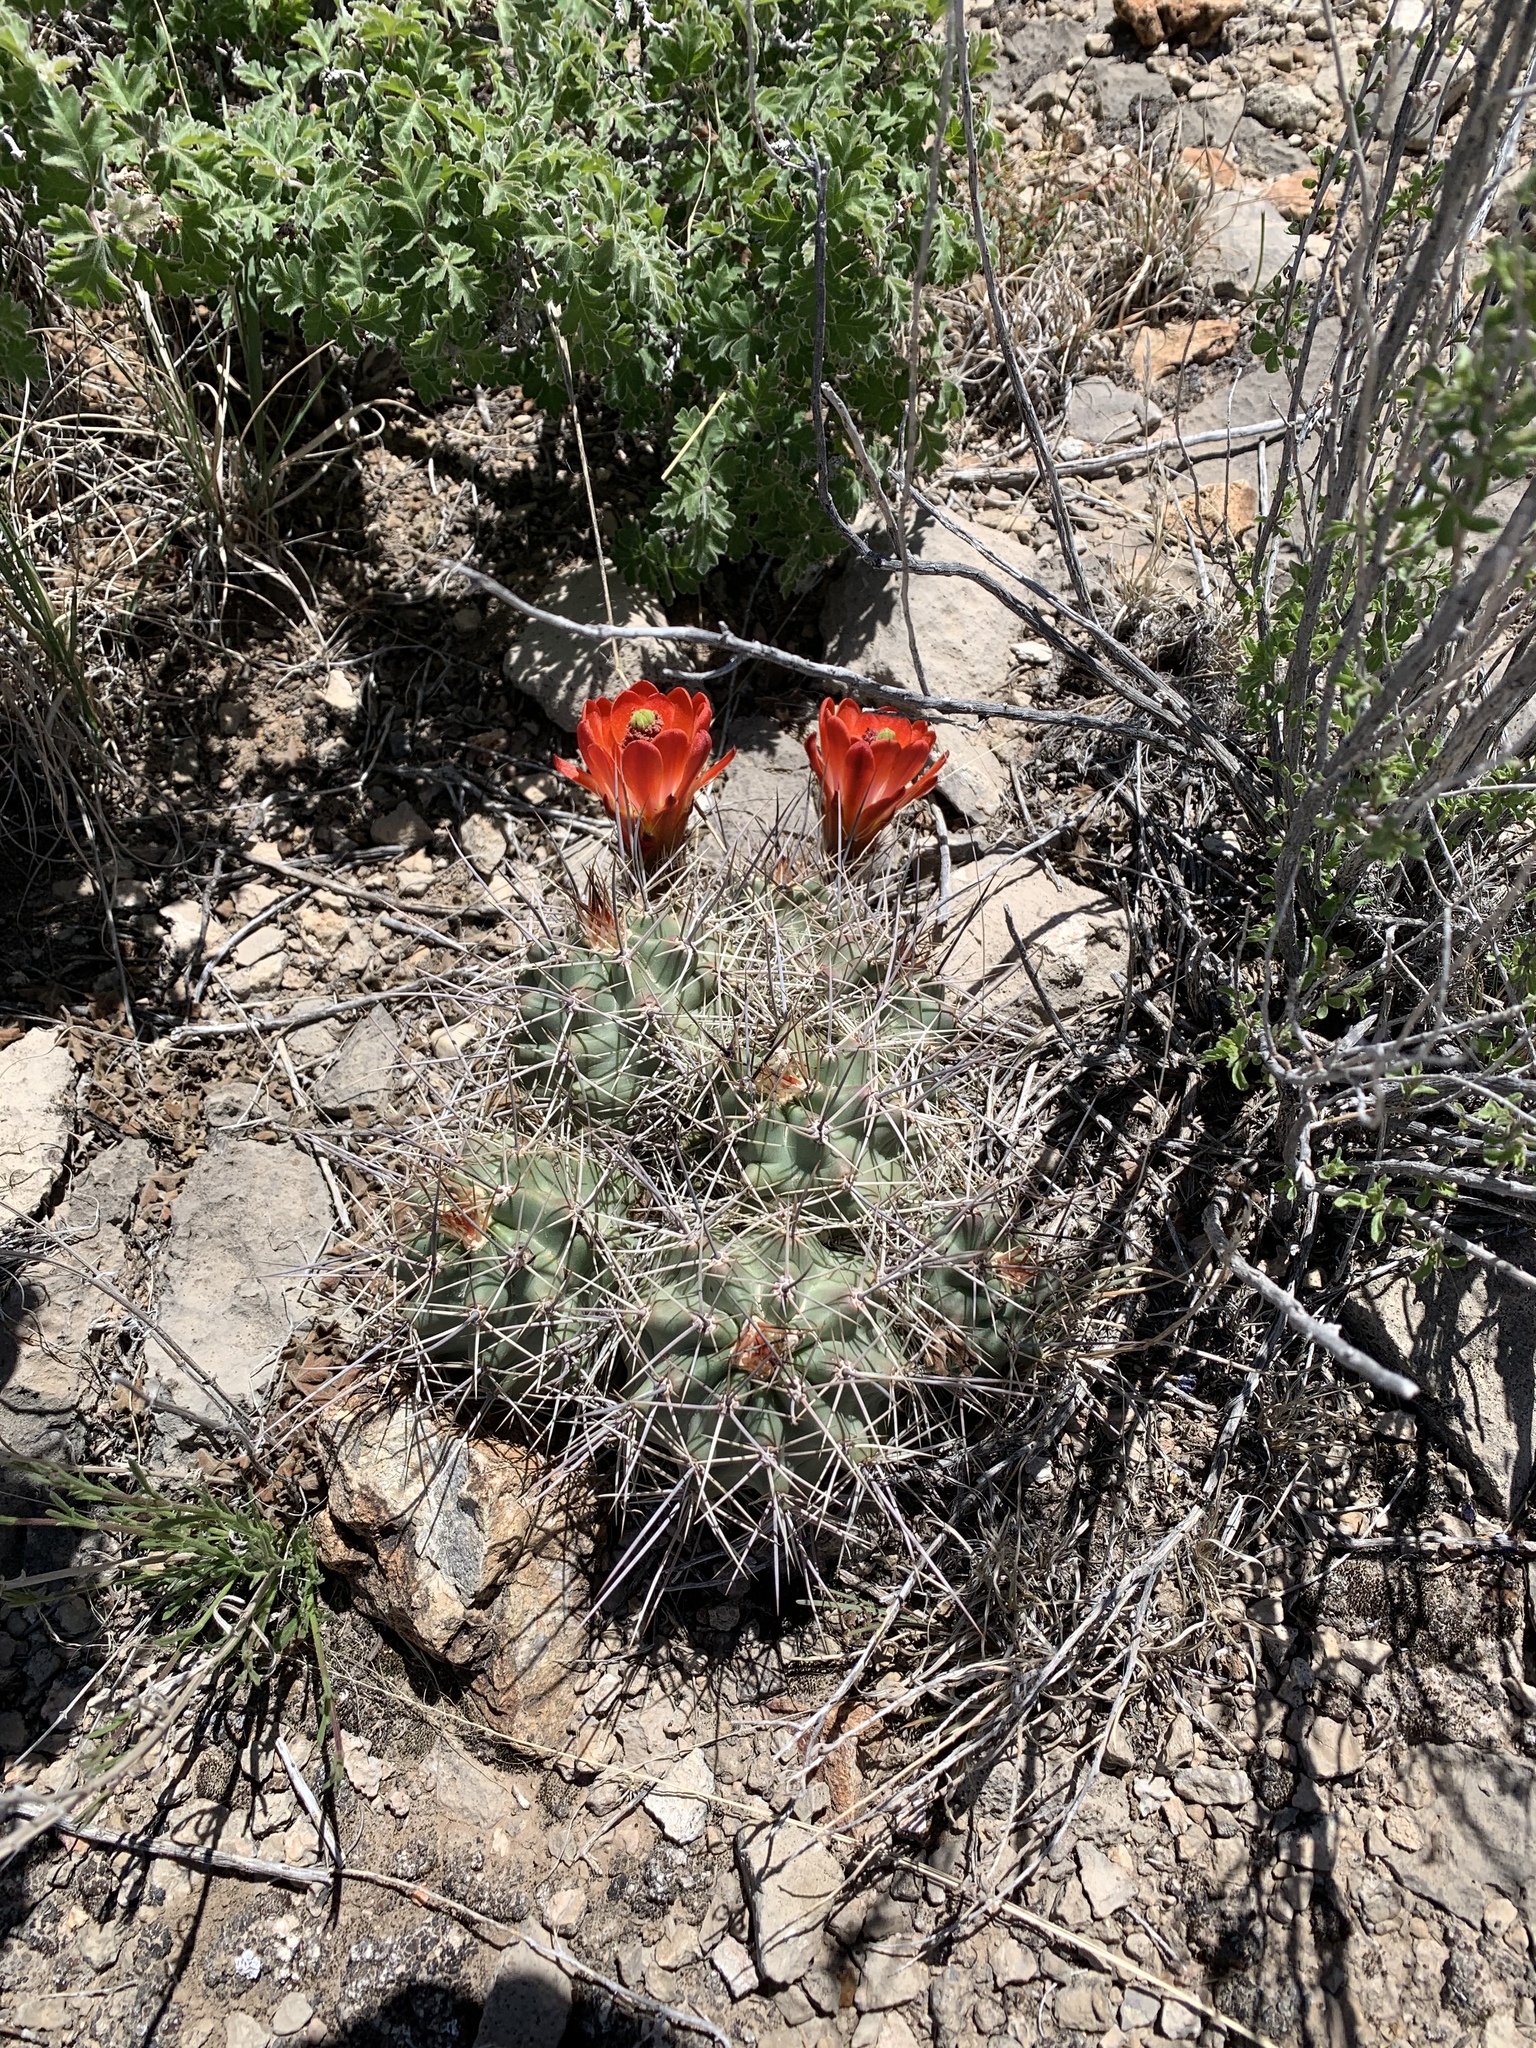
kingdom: Plantae
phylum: Tracheophyta
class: Magnoliopsida
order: Caryophyllales
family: Cactaceae
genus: Echinocereus
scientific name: Echinocereus coccineus
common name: Scarlet hedgehog cactus
